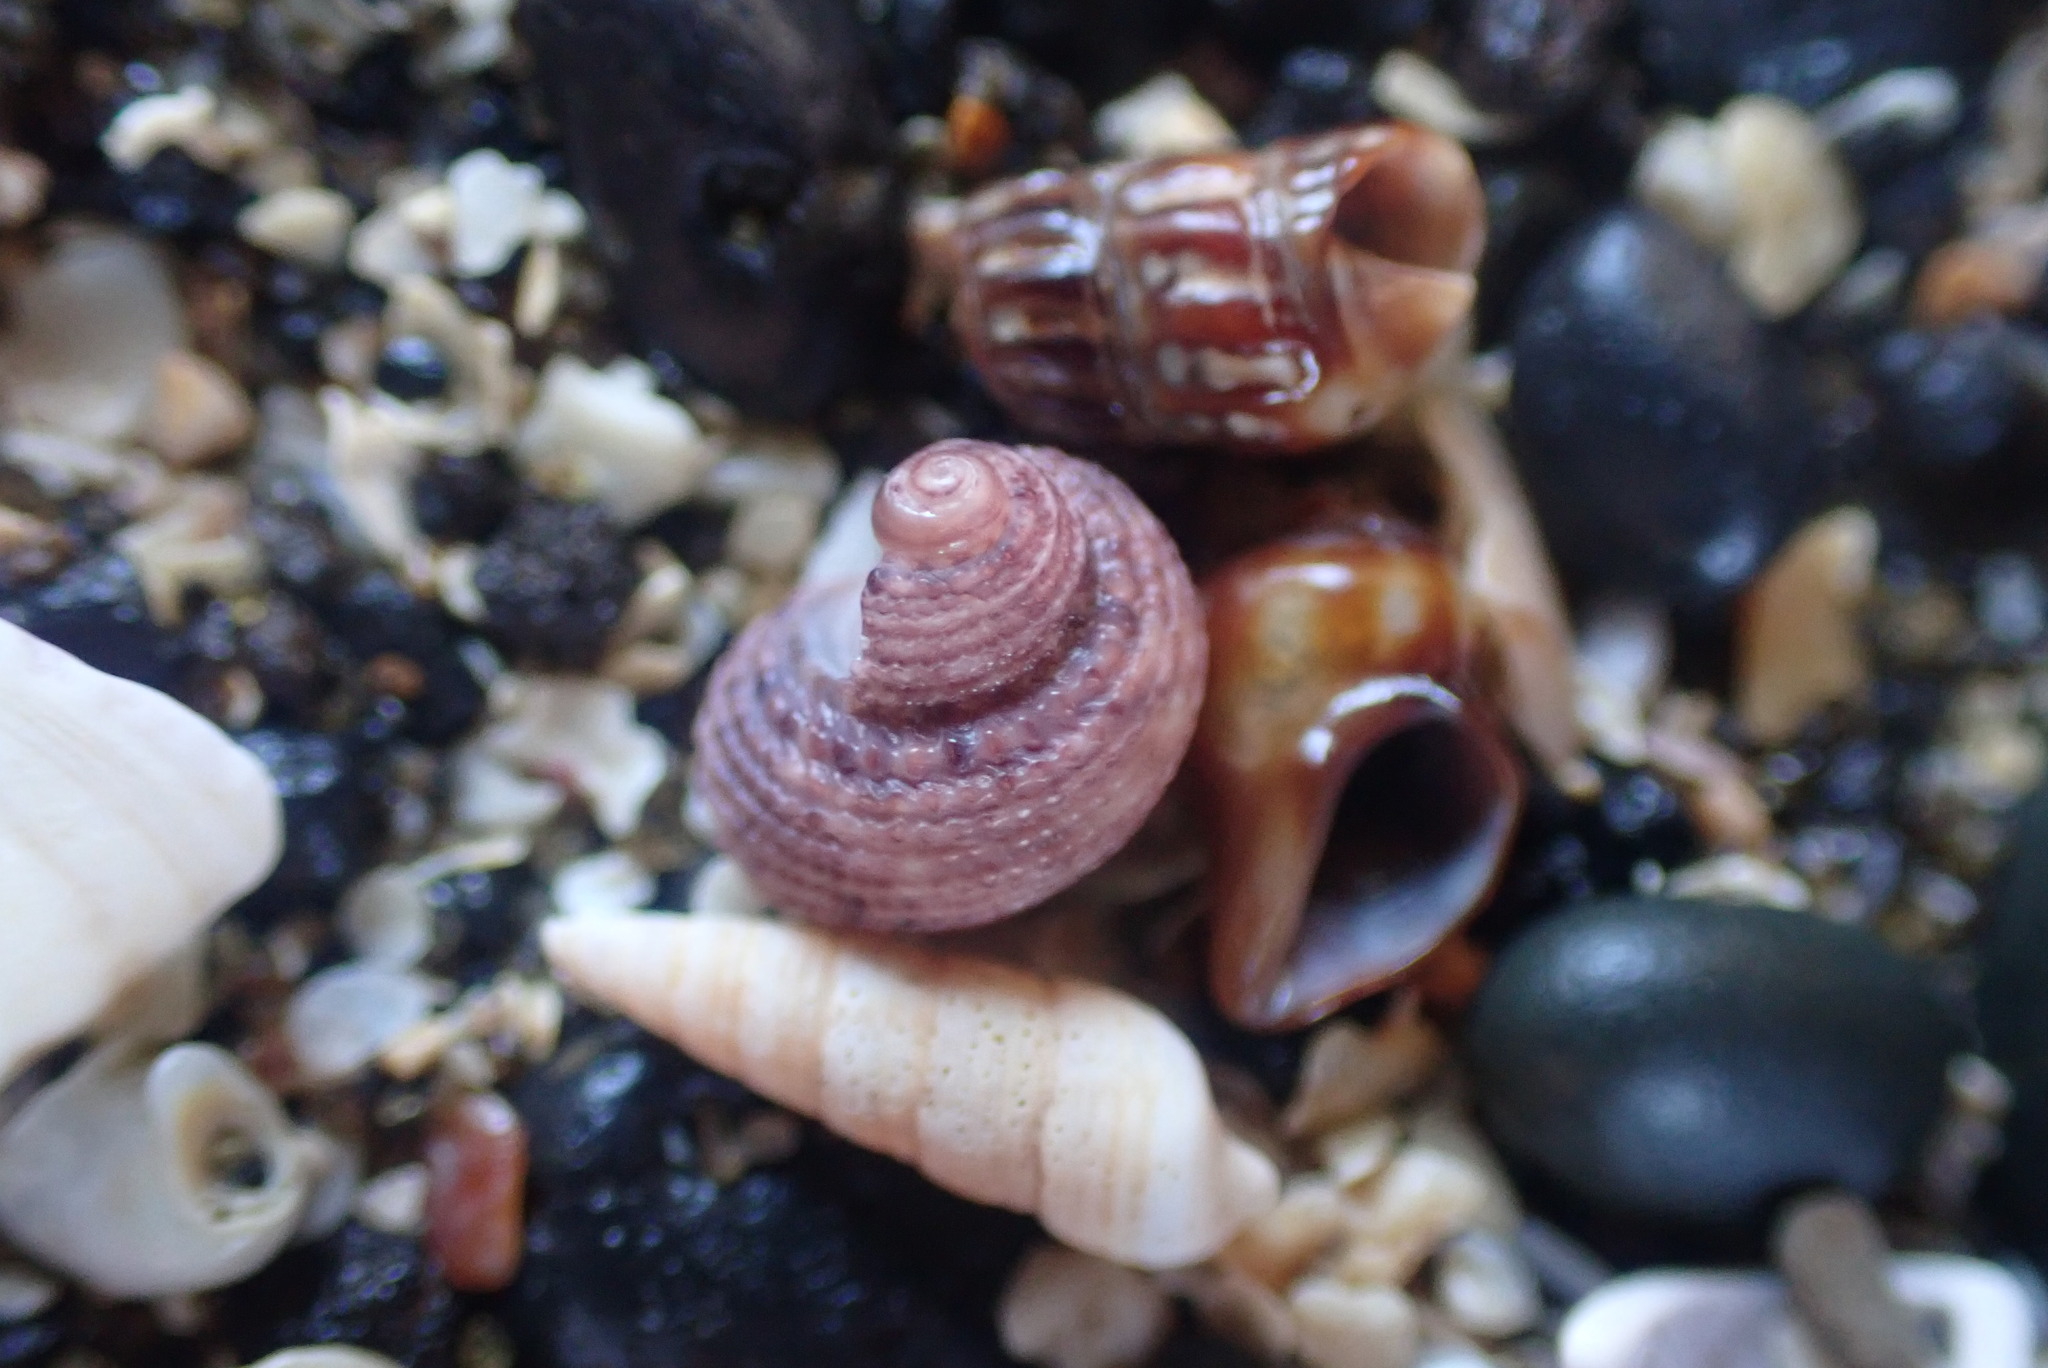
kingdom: Animalia
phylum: Mollusca
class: Gastropoda
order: Seguenziida
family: Chilodontaidae
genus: Herpetopoma
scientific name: Herpetopoma bellum
